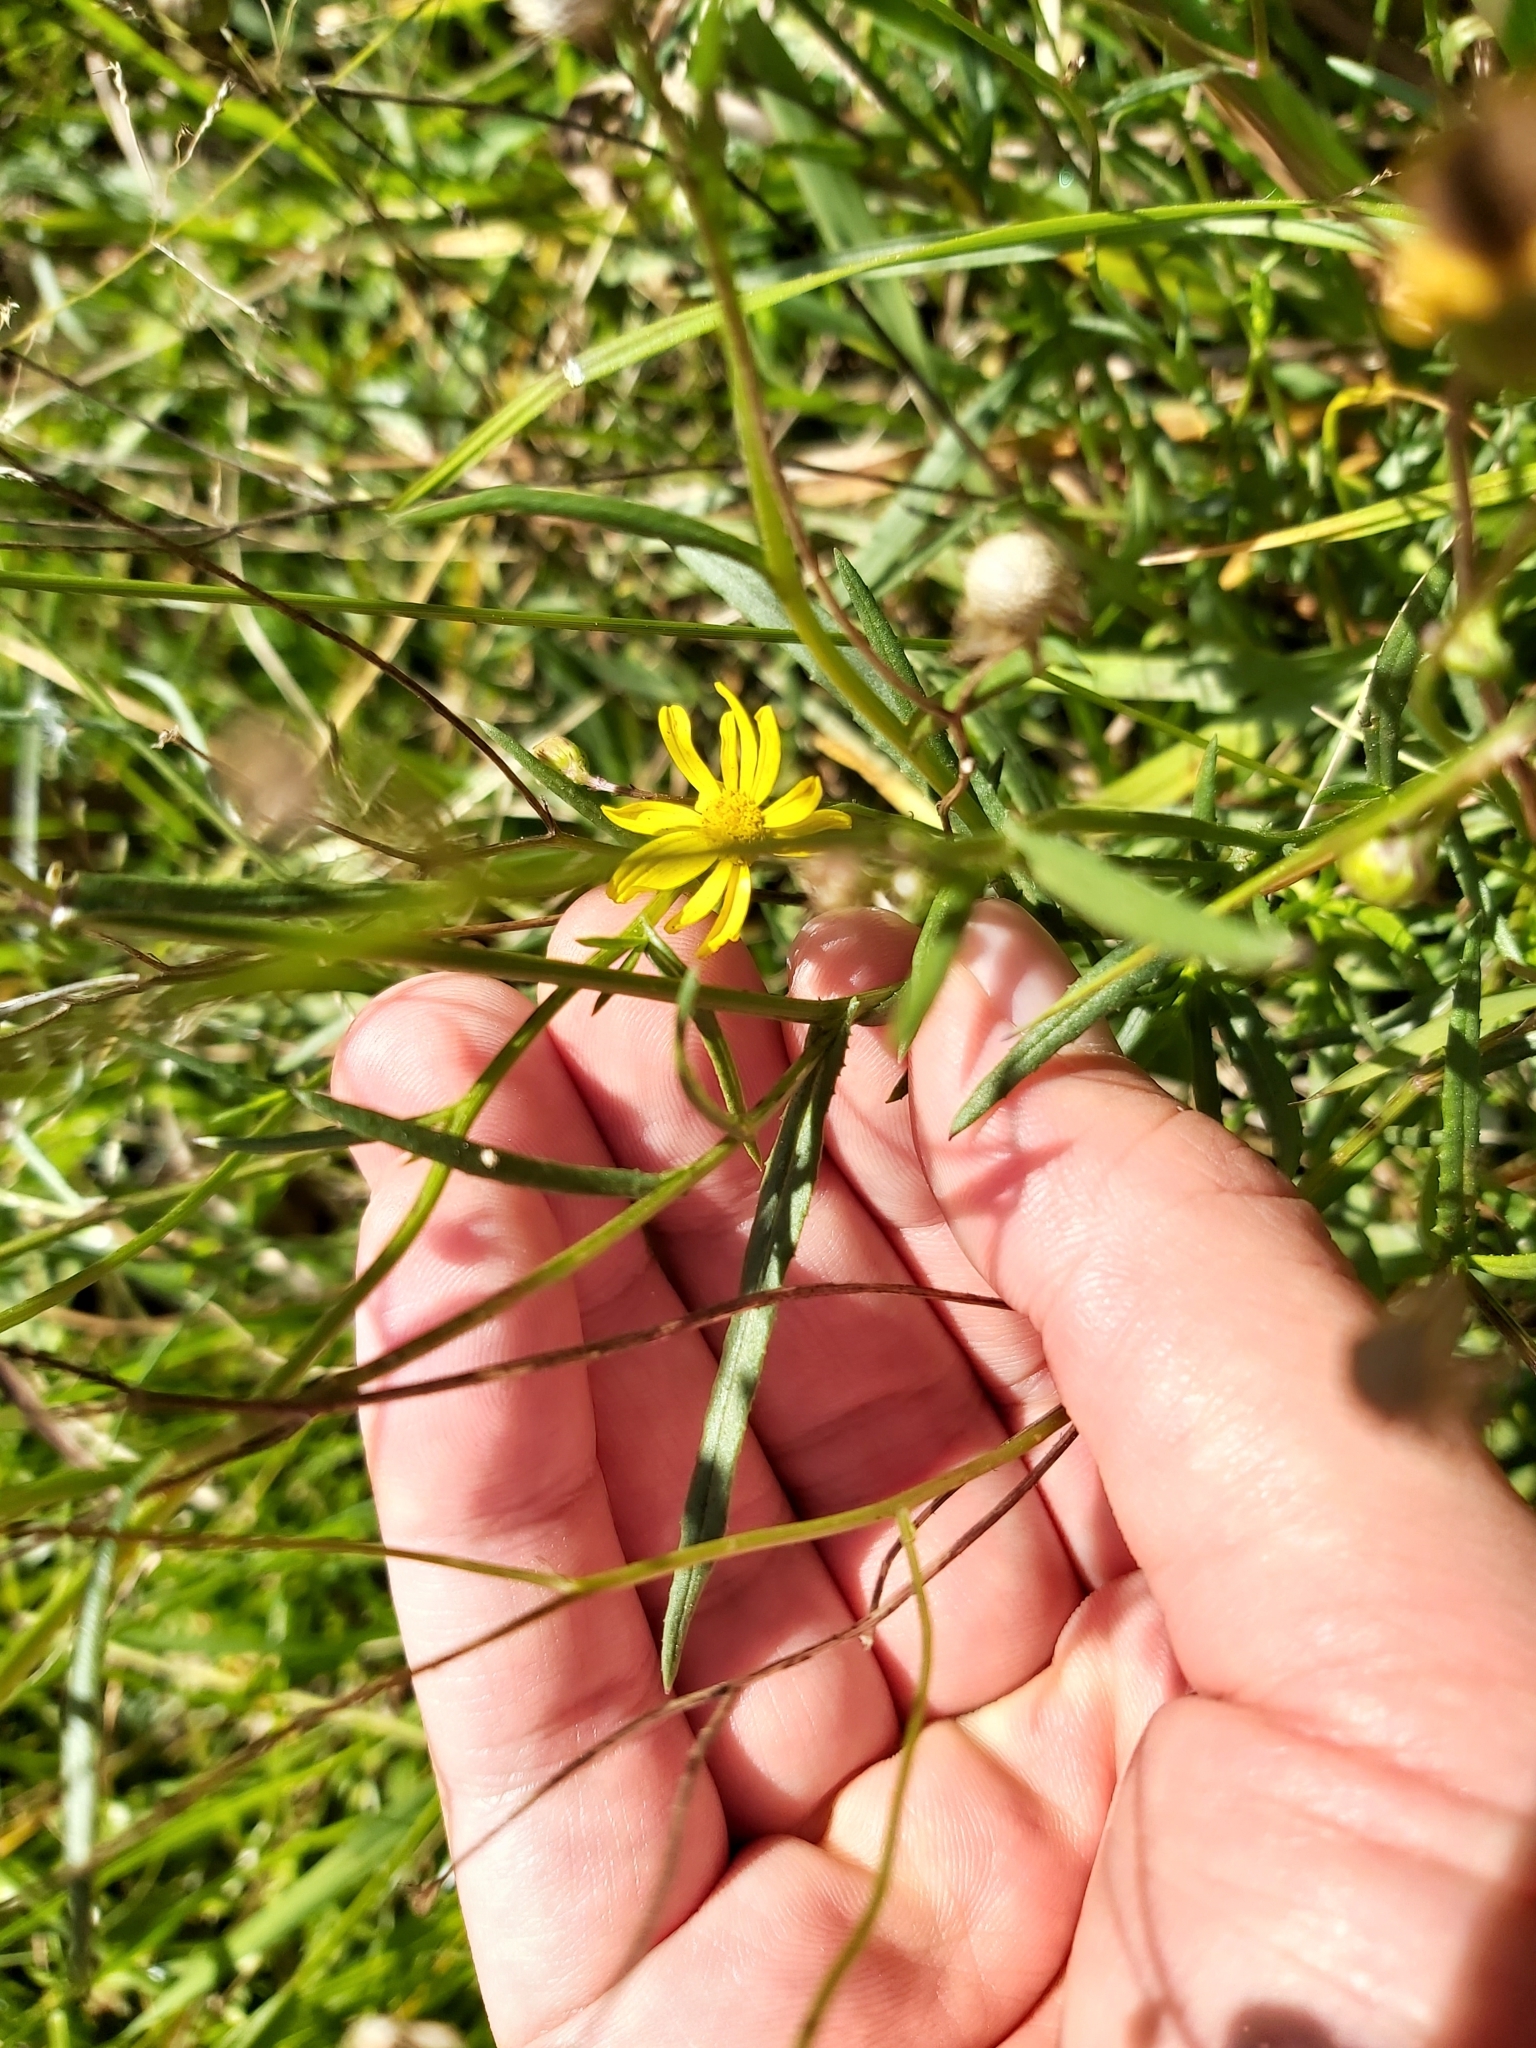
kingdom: Plantae
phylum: Tracheophyta
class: Magnoliopsida
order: Asterales
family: Asteraceae
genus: Senecio
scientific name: Senecio madagascariensis
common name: Madagascar ragwort
